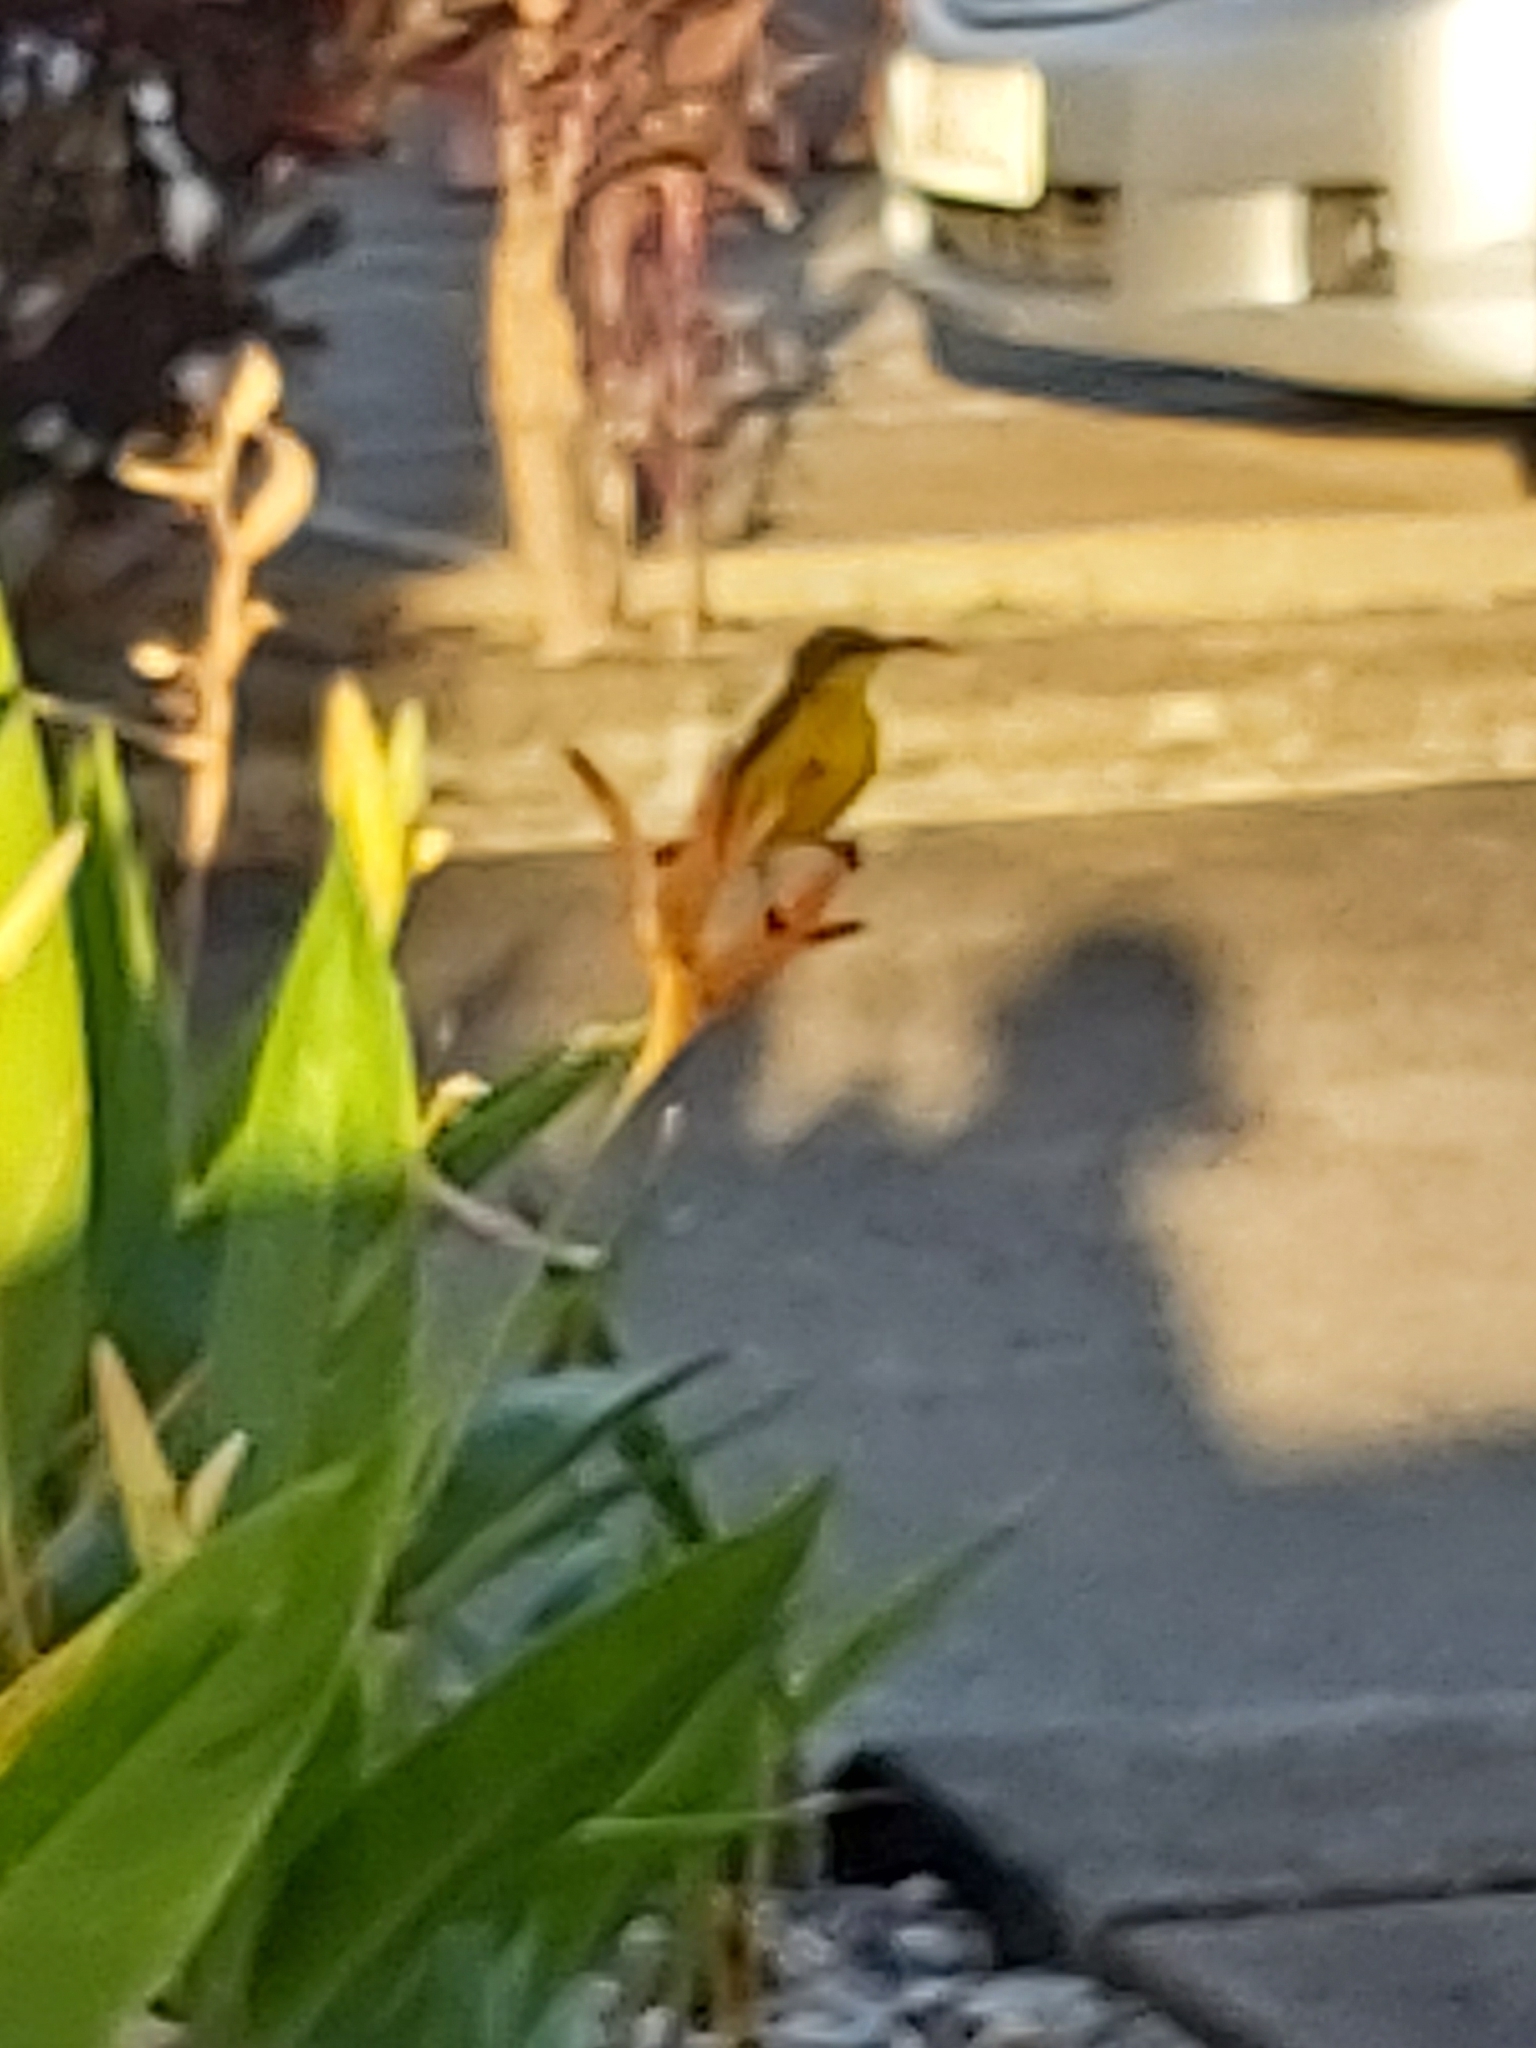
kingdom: Animalia
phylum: Chordata
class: Aves
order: Passeriformes
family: Nectariniidae
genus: Cinnyris
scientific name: Cinnyris
